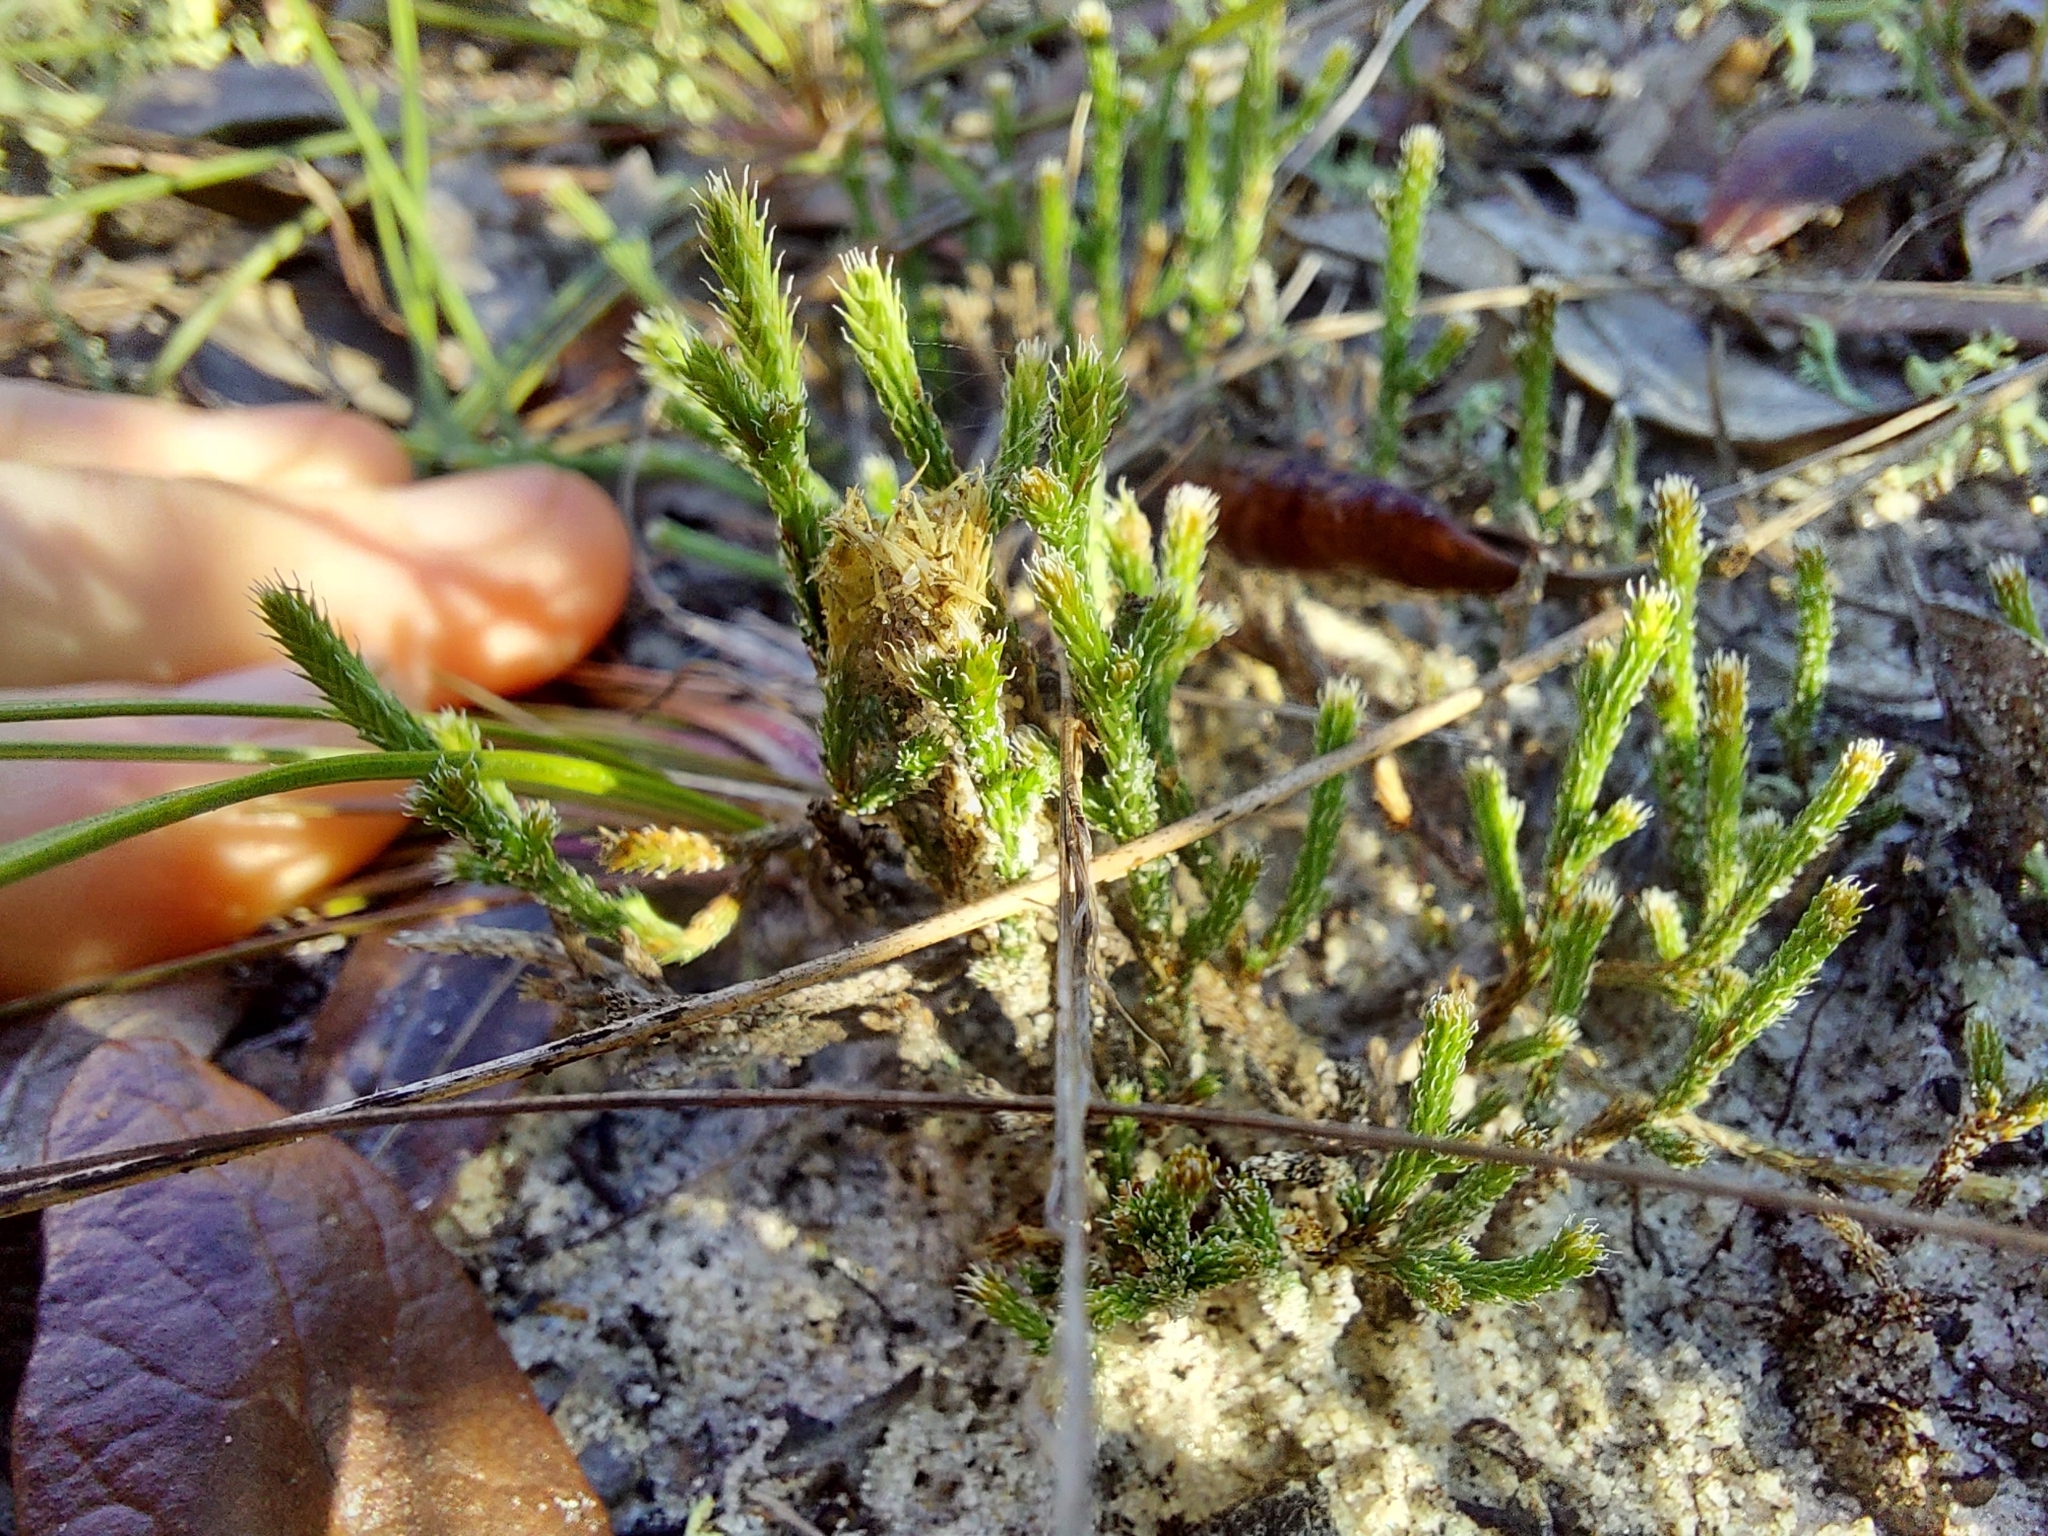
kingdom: Plantae
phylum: Tracheophyta
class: Lycopodiopsida
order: Selaginellales
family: Selaginellaceae
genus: Selaginella
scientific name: Selaginella arenicola
